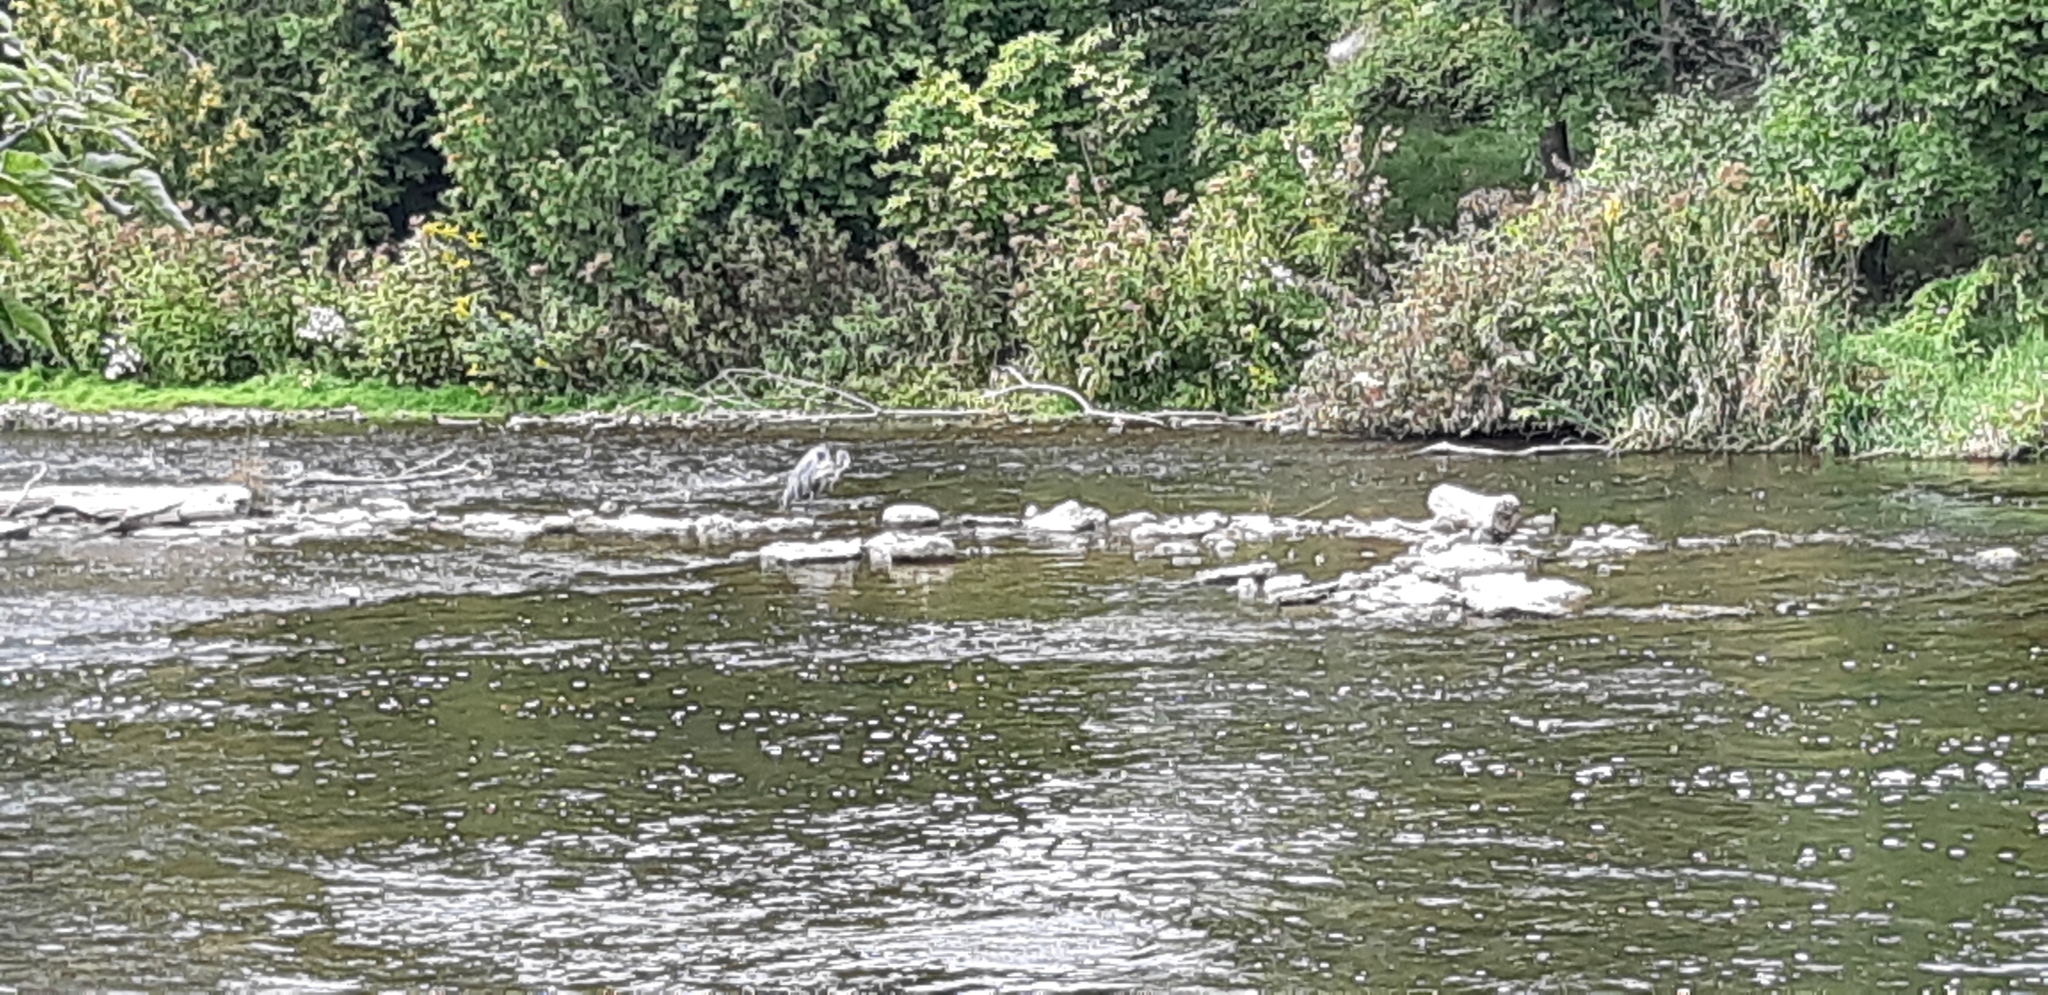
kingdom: Animalia
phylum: Chordata
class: Aves
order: Pelecaniformes
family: Ardeidae
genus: Ardea
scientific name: Ardea herodias
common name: Great blue heron
